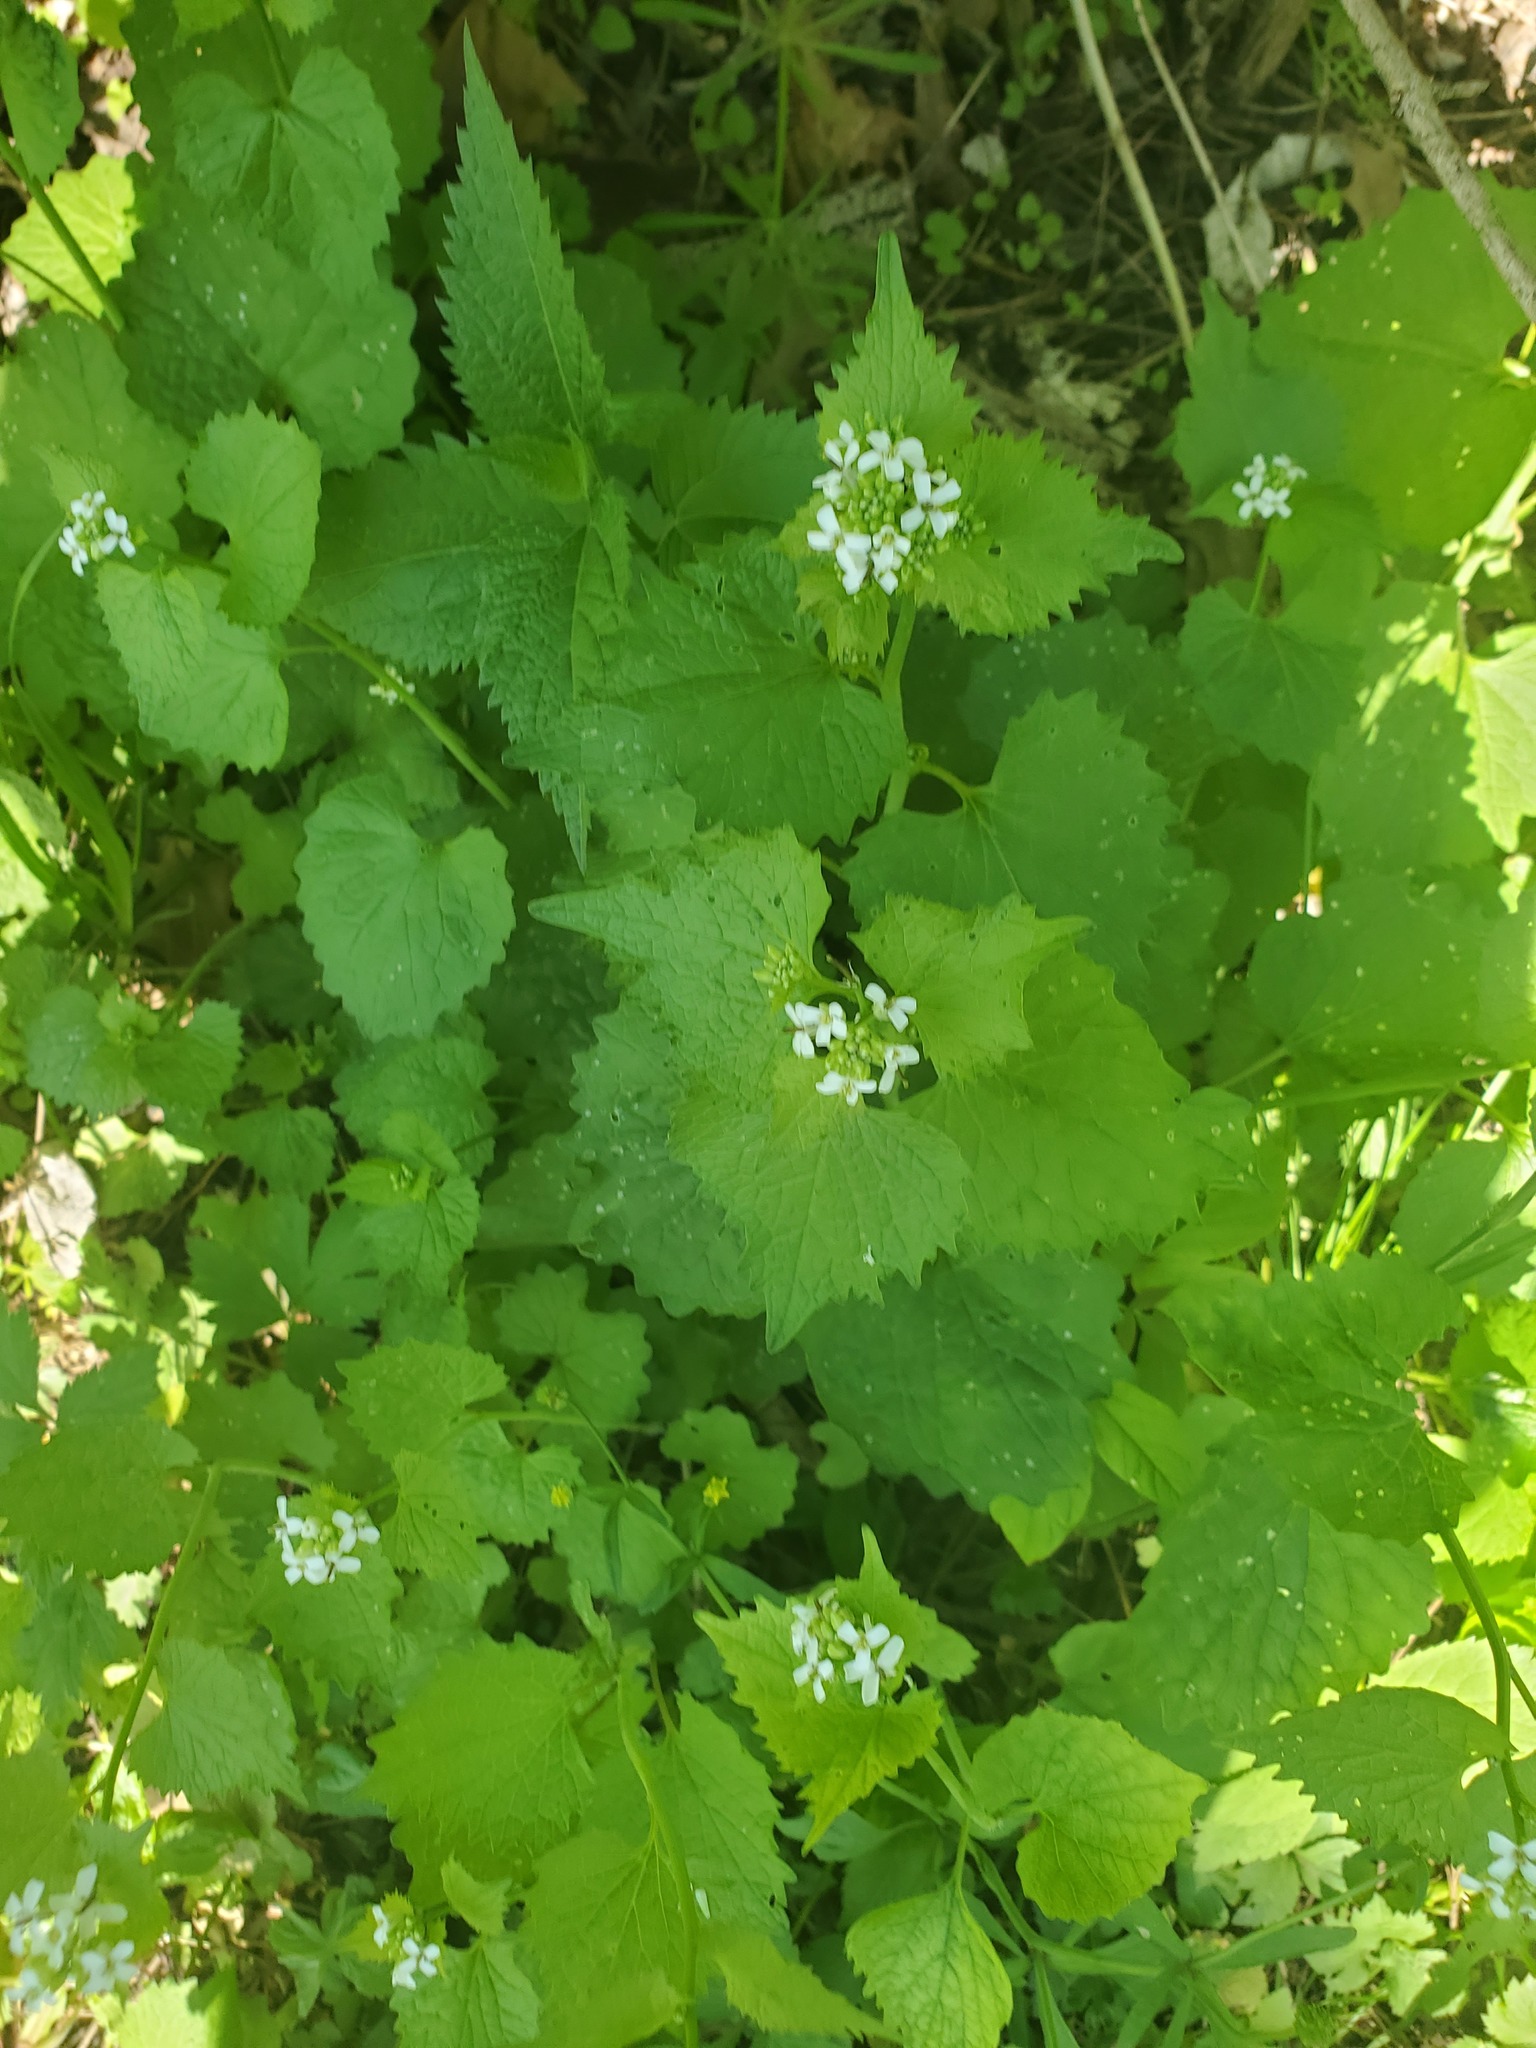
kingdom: Plantae
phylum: Tracheophyta
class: Magnoliopsida
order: Brassicales
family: Brassicaceae
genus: Alliaria
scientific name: Alliaria petiolata
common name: Garlic mustard
